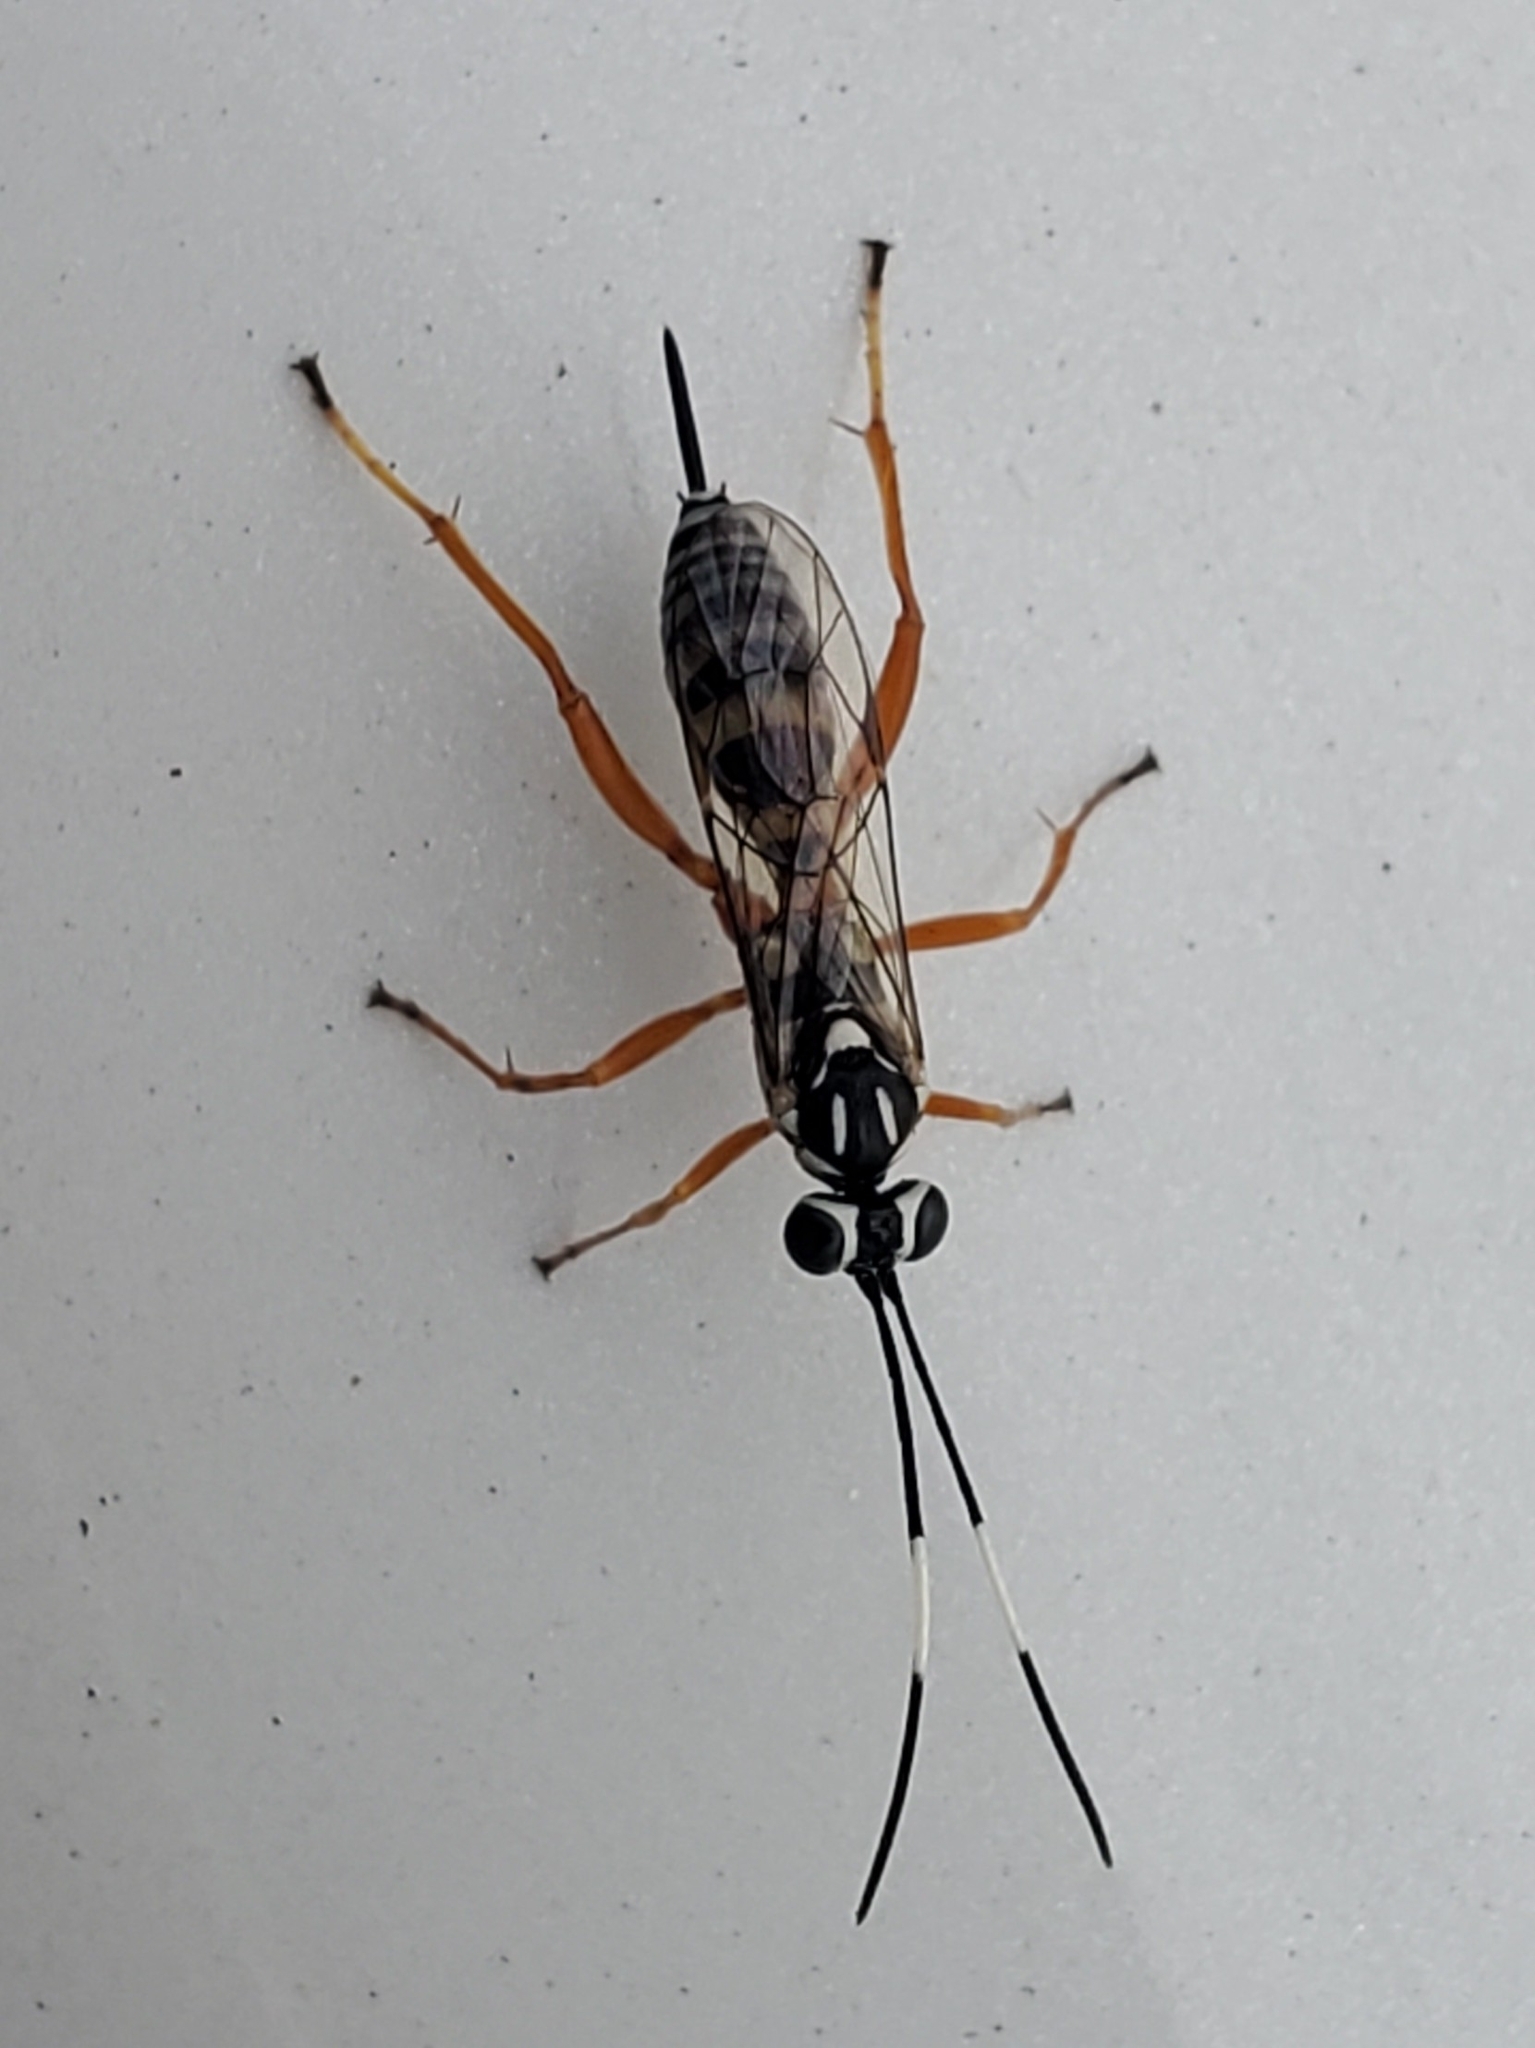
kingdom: Animalia
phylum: Arthropoda
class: Insecta
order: Hymenoptera
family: Ichneumonidae
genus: Lymeon
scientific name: Lymeon orbus
